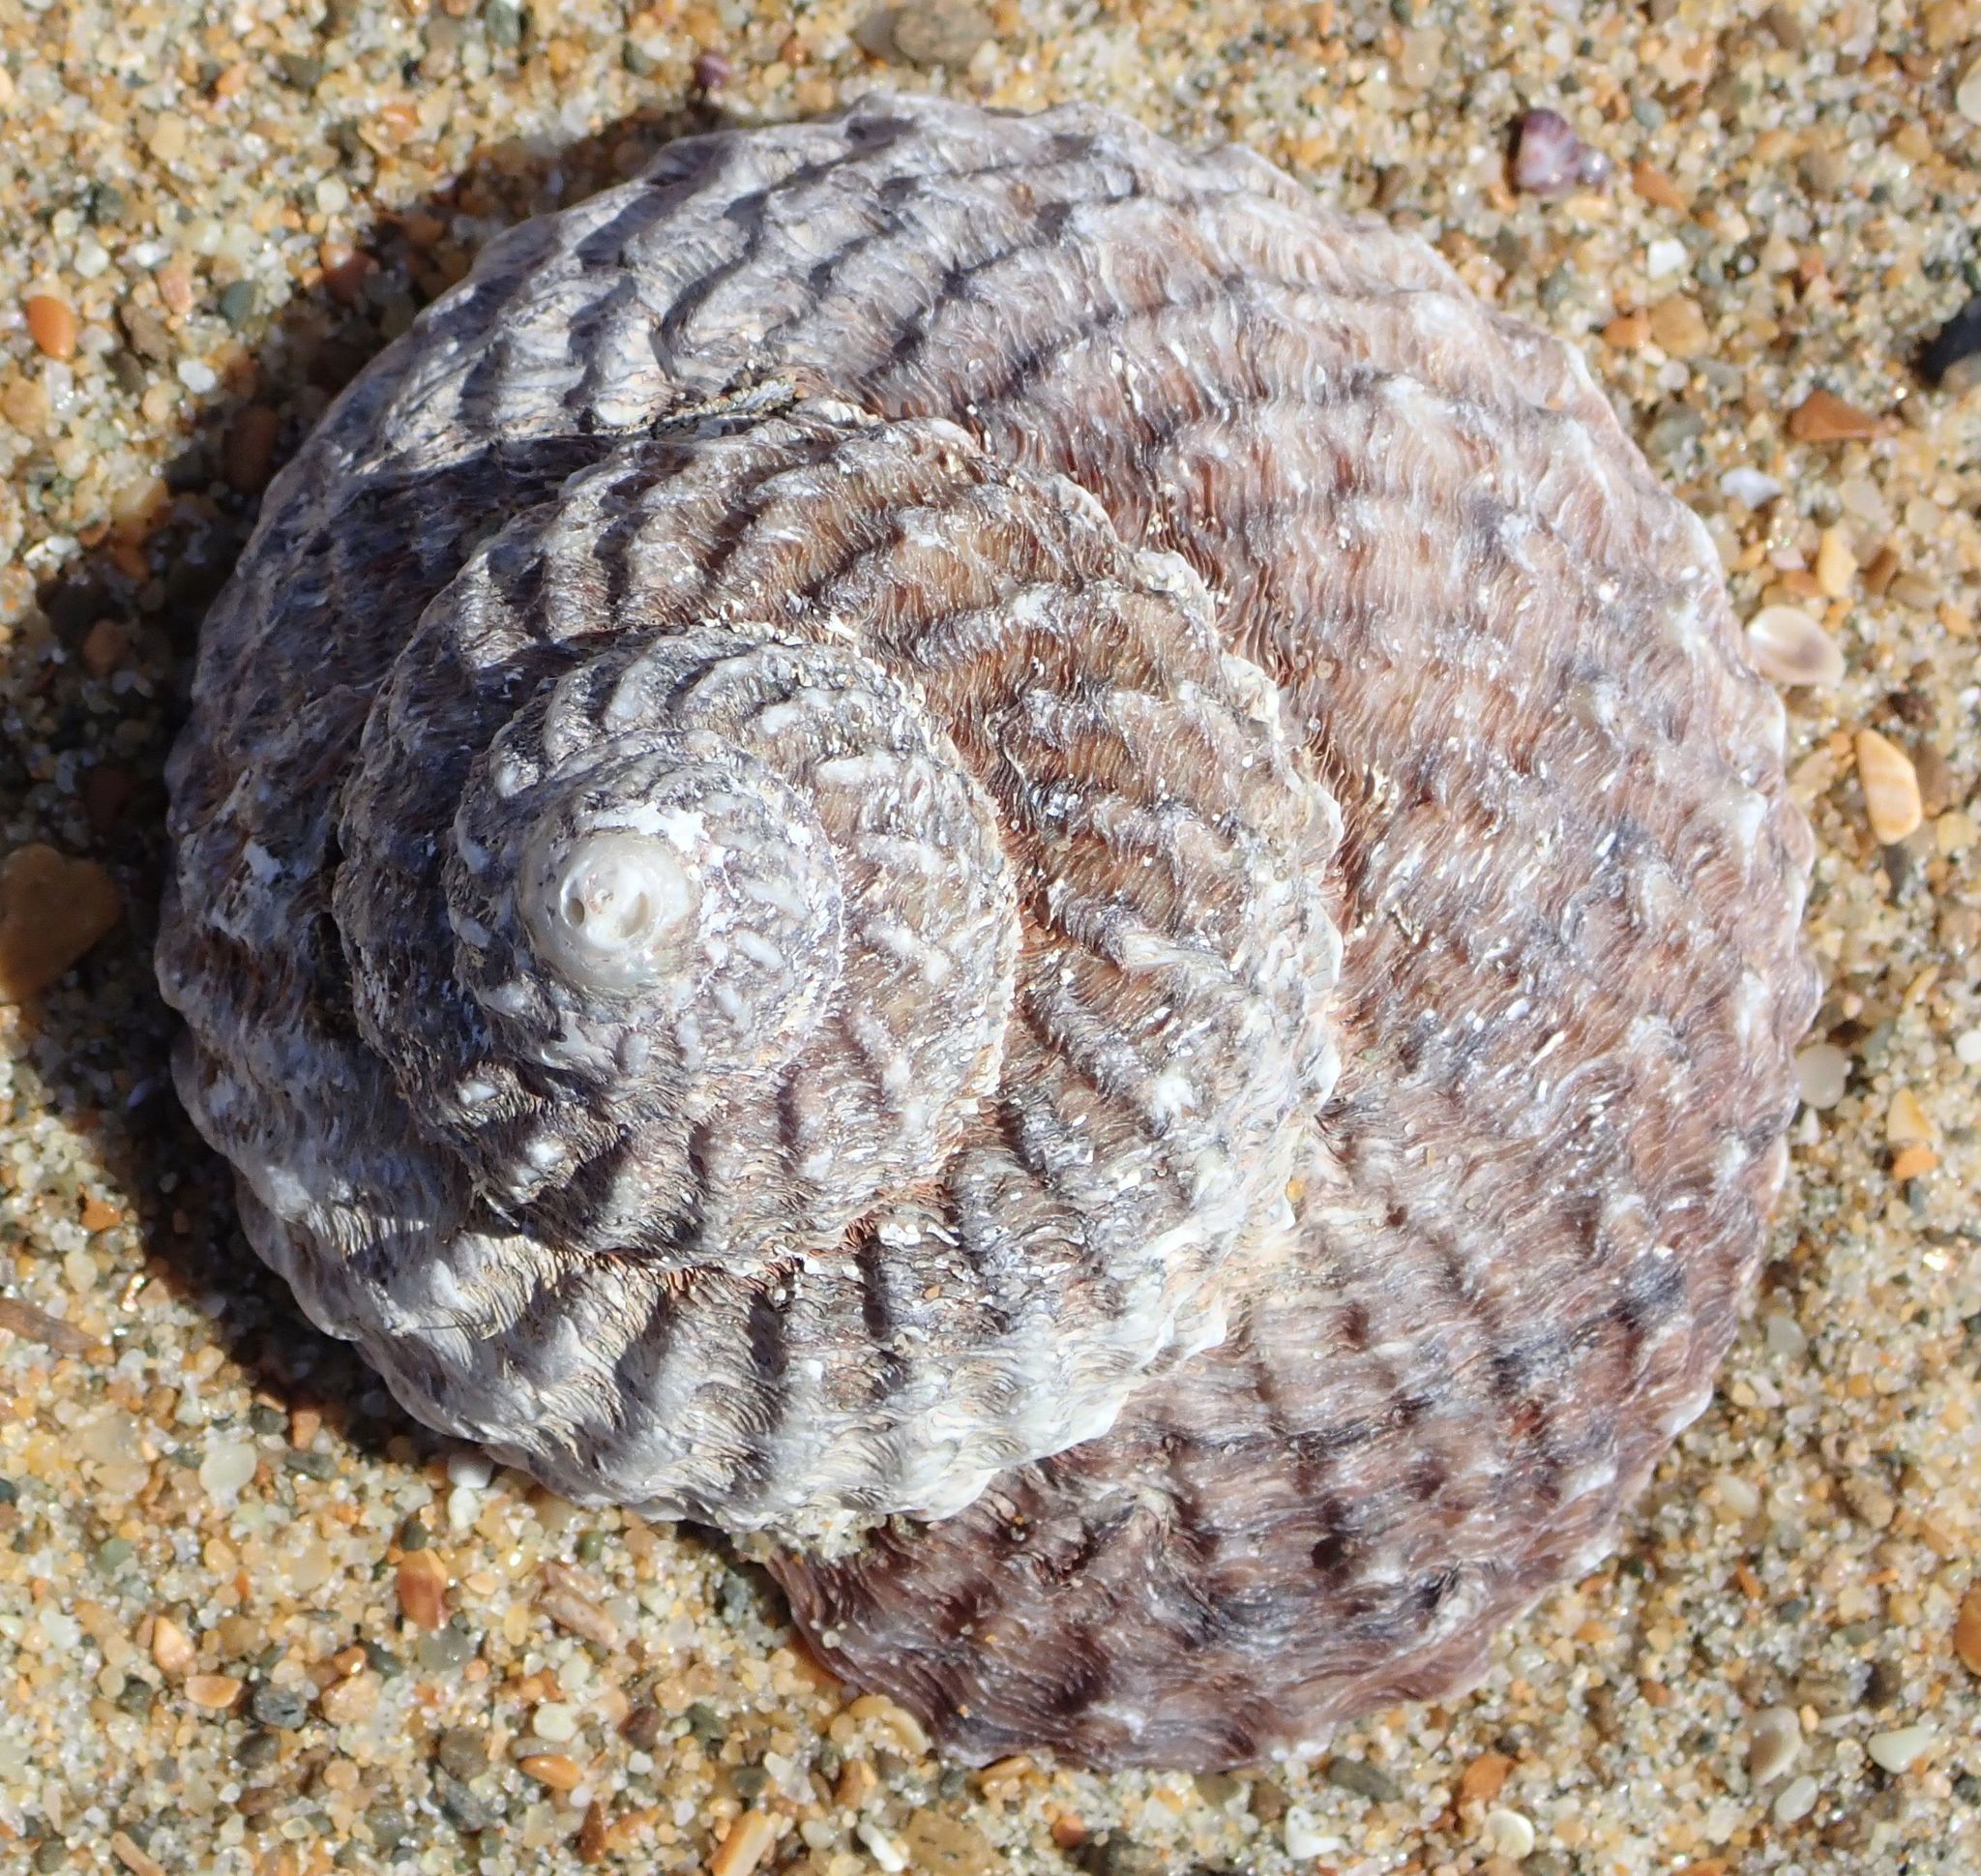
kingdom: Animalia
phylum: Mollusca
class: Gastropoda
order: Trochida
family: Turbinidae
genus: Cookia
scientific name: Cookia sulcata
